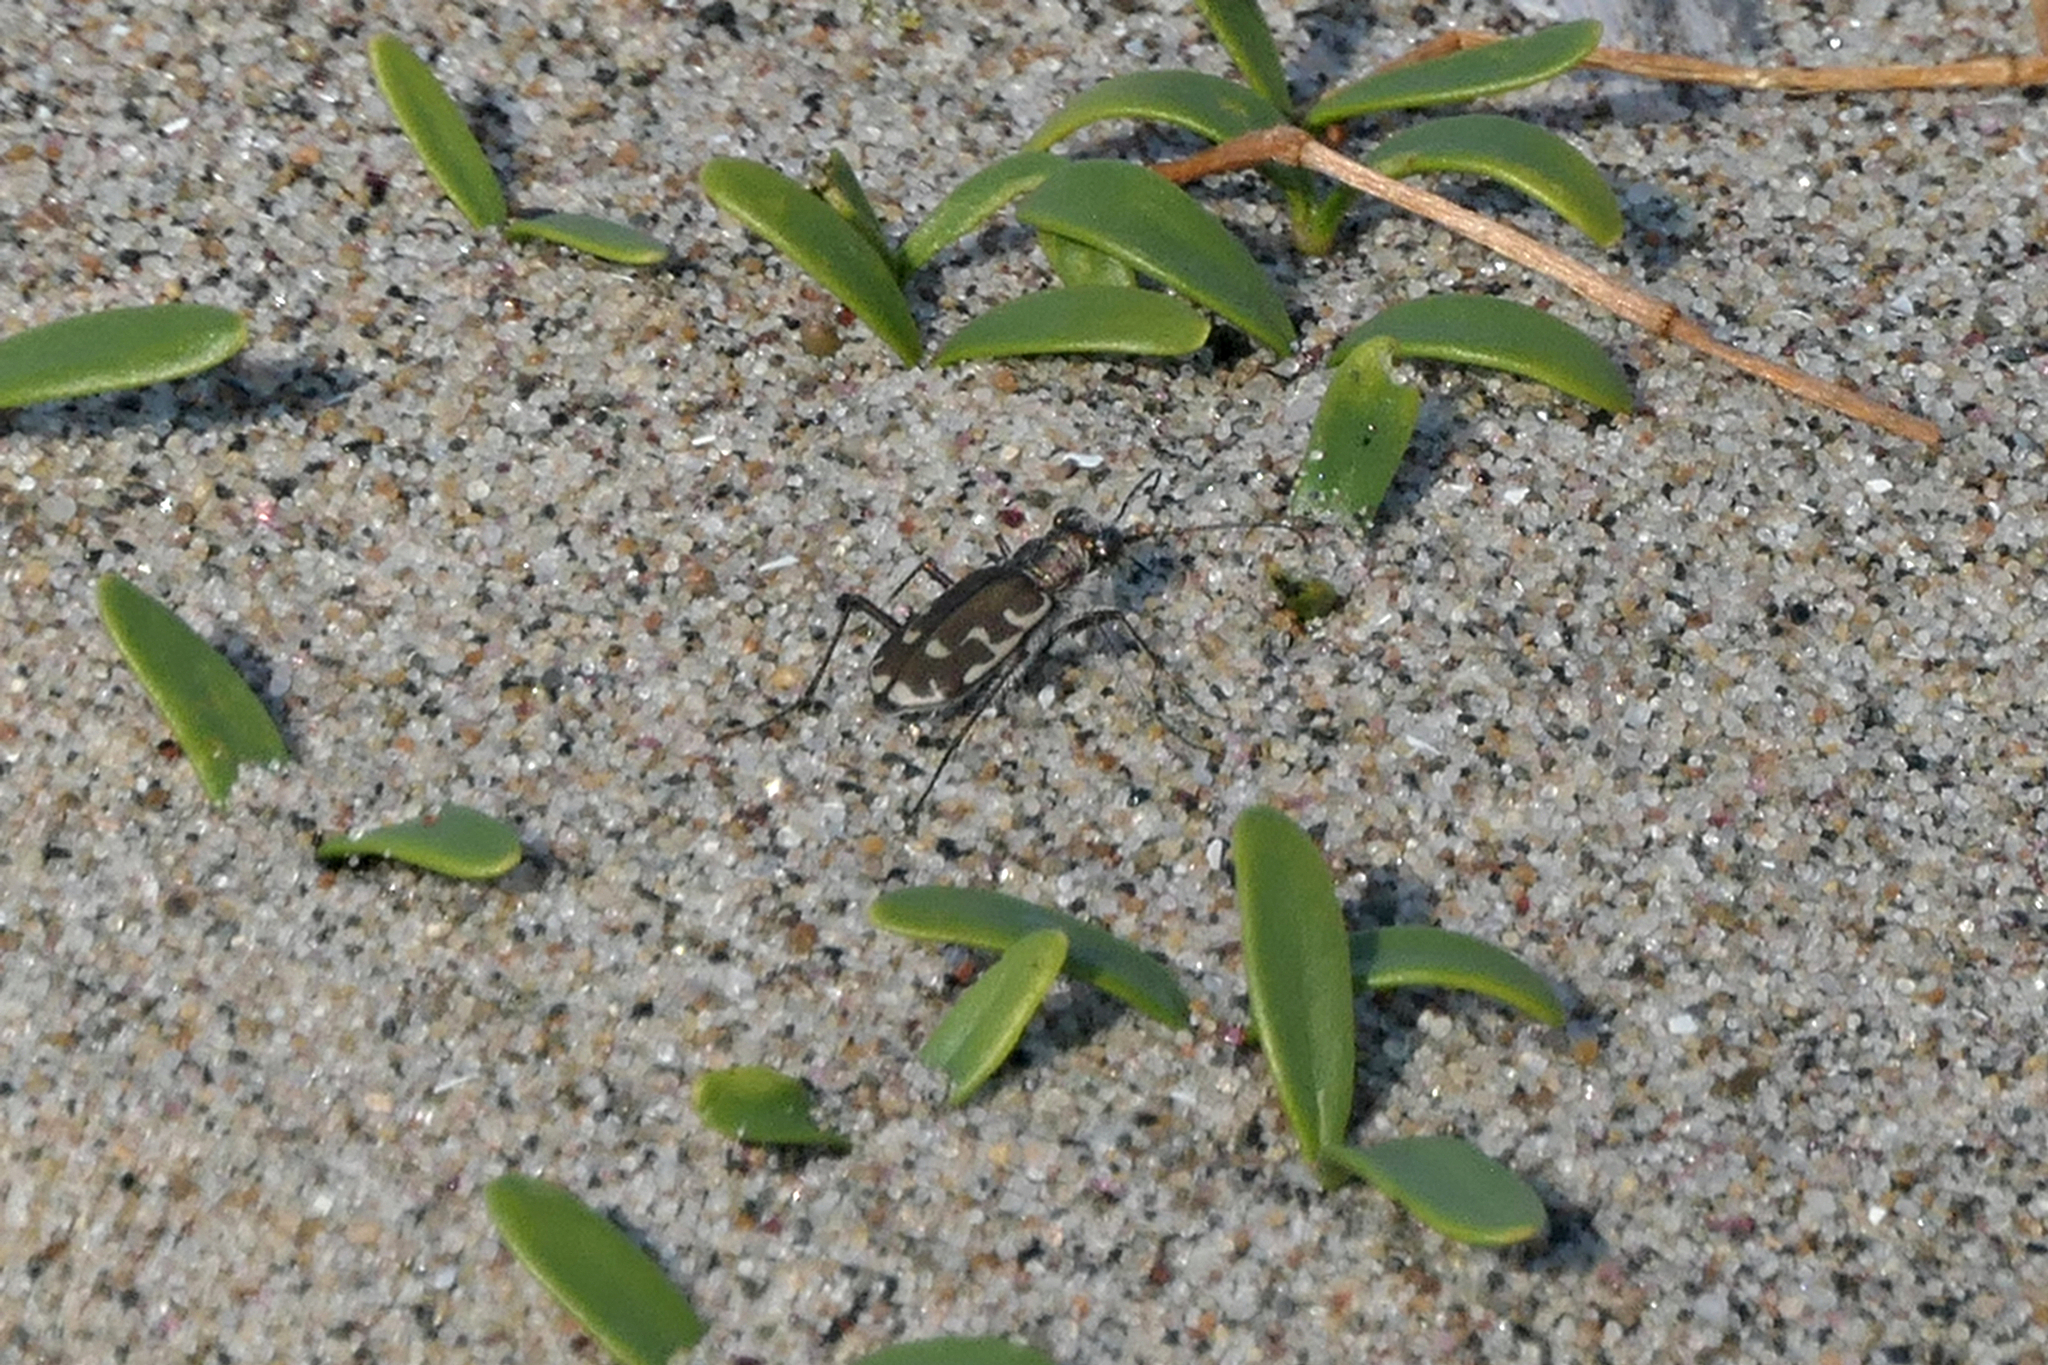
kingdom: Animalia
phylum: Arthropoda
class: Insecta
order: Coleoptera
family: Carabidae
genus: Cicindela
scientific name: Cicindela repanda
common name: Bronzed tiger beetle
